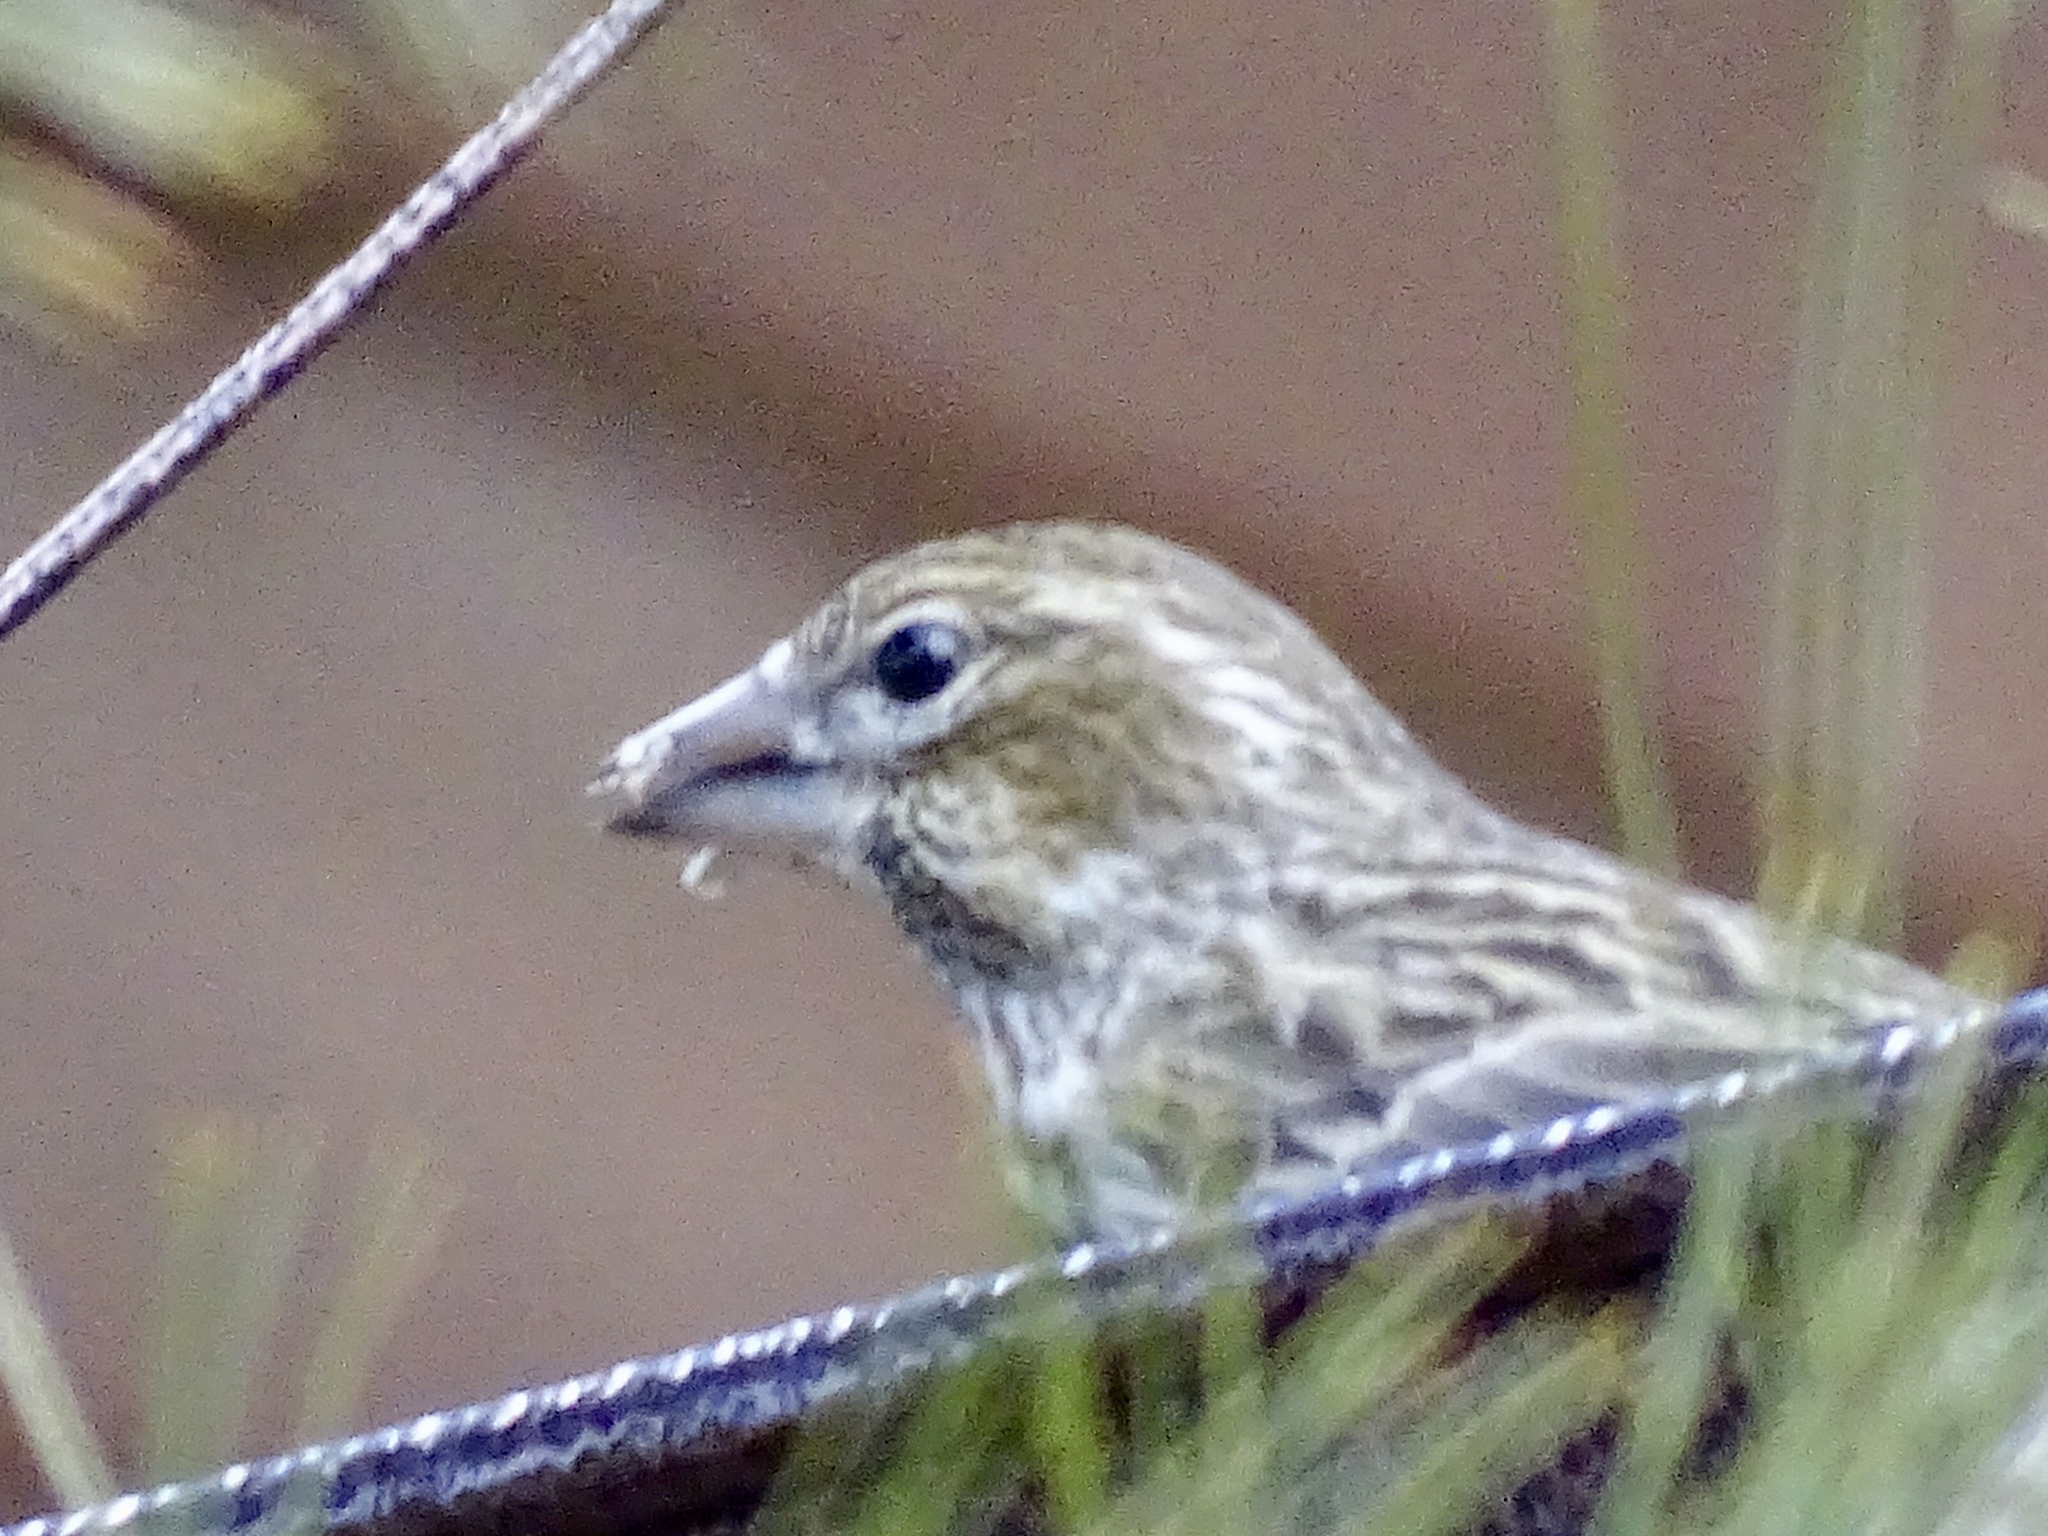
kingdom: Animalia
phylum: Chordata
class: Aves
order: Passeriformes
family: Fringillidae
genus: Haemorhous
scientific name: Haemorhous cassinii
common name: Cassin's finch
